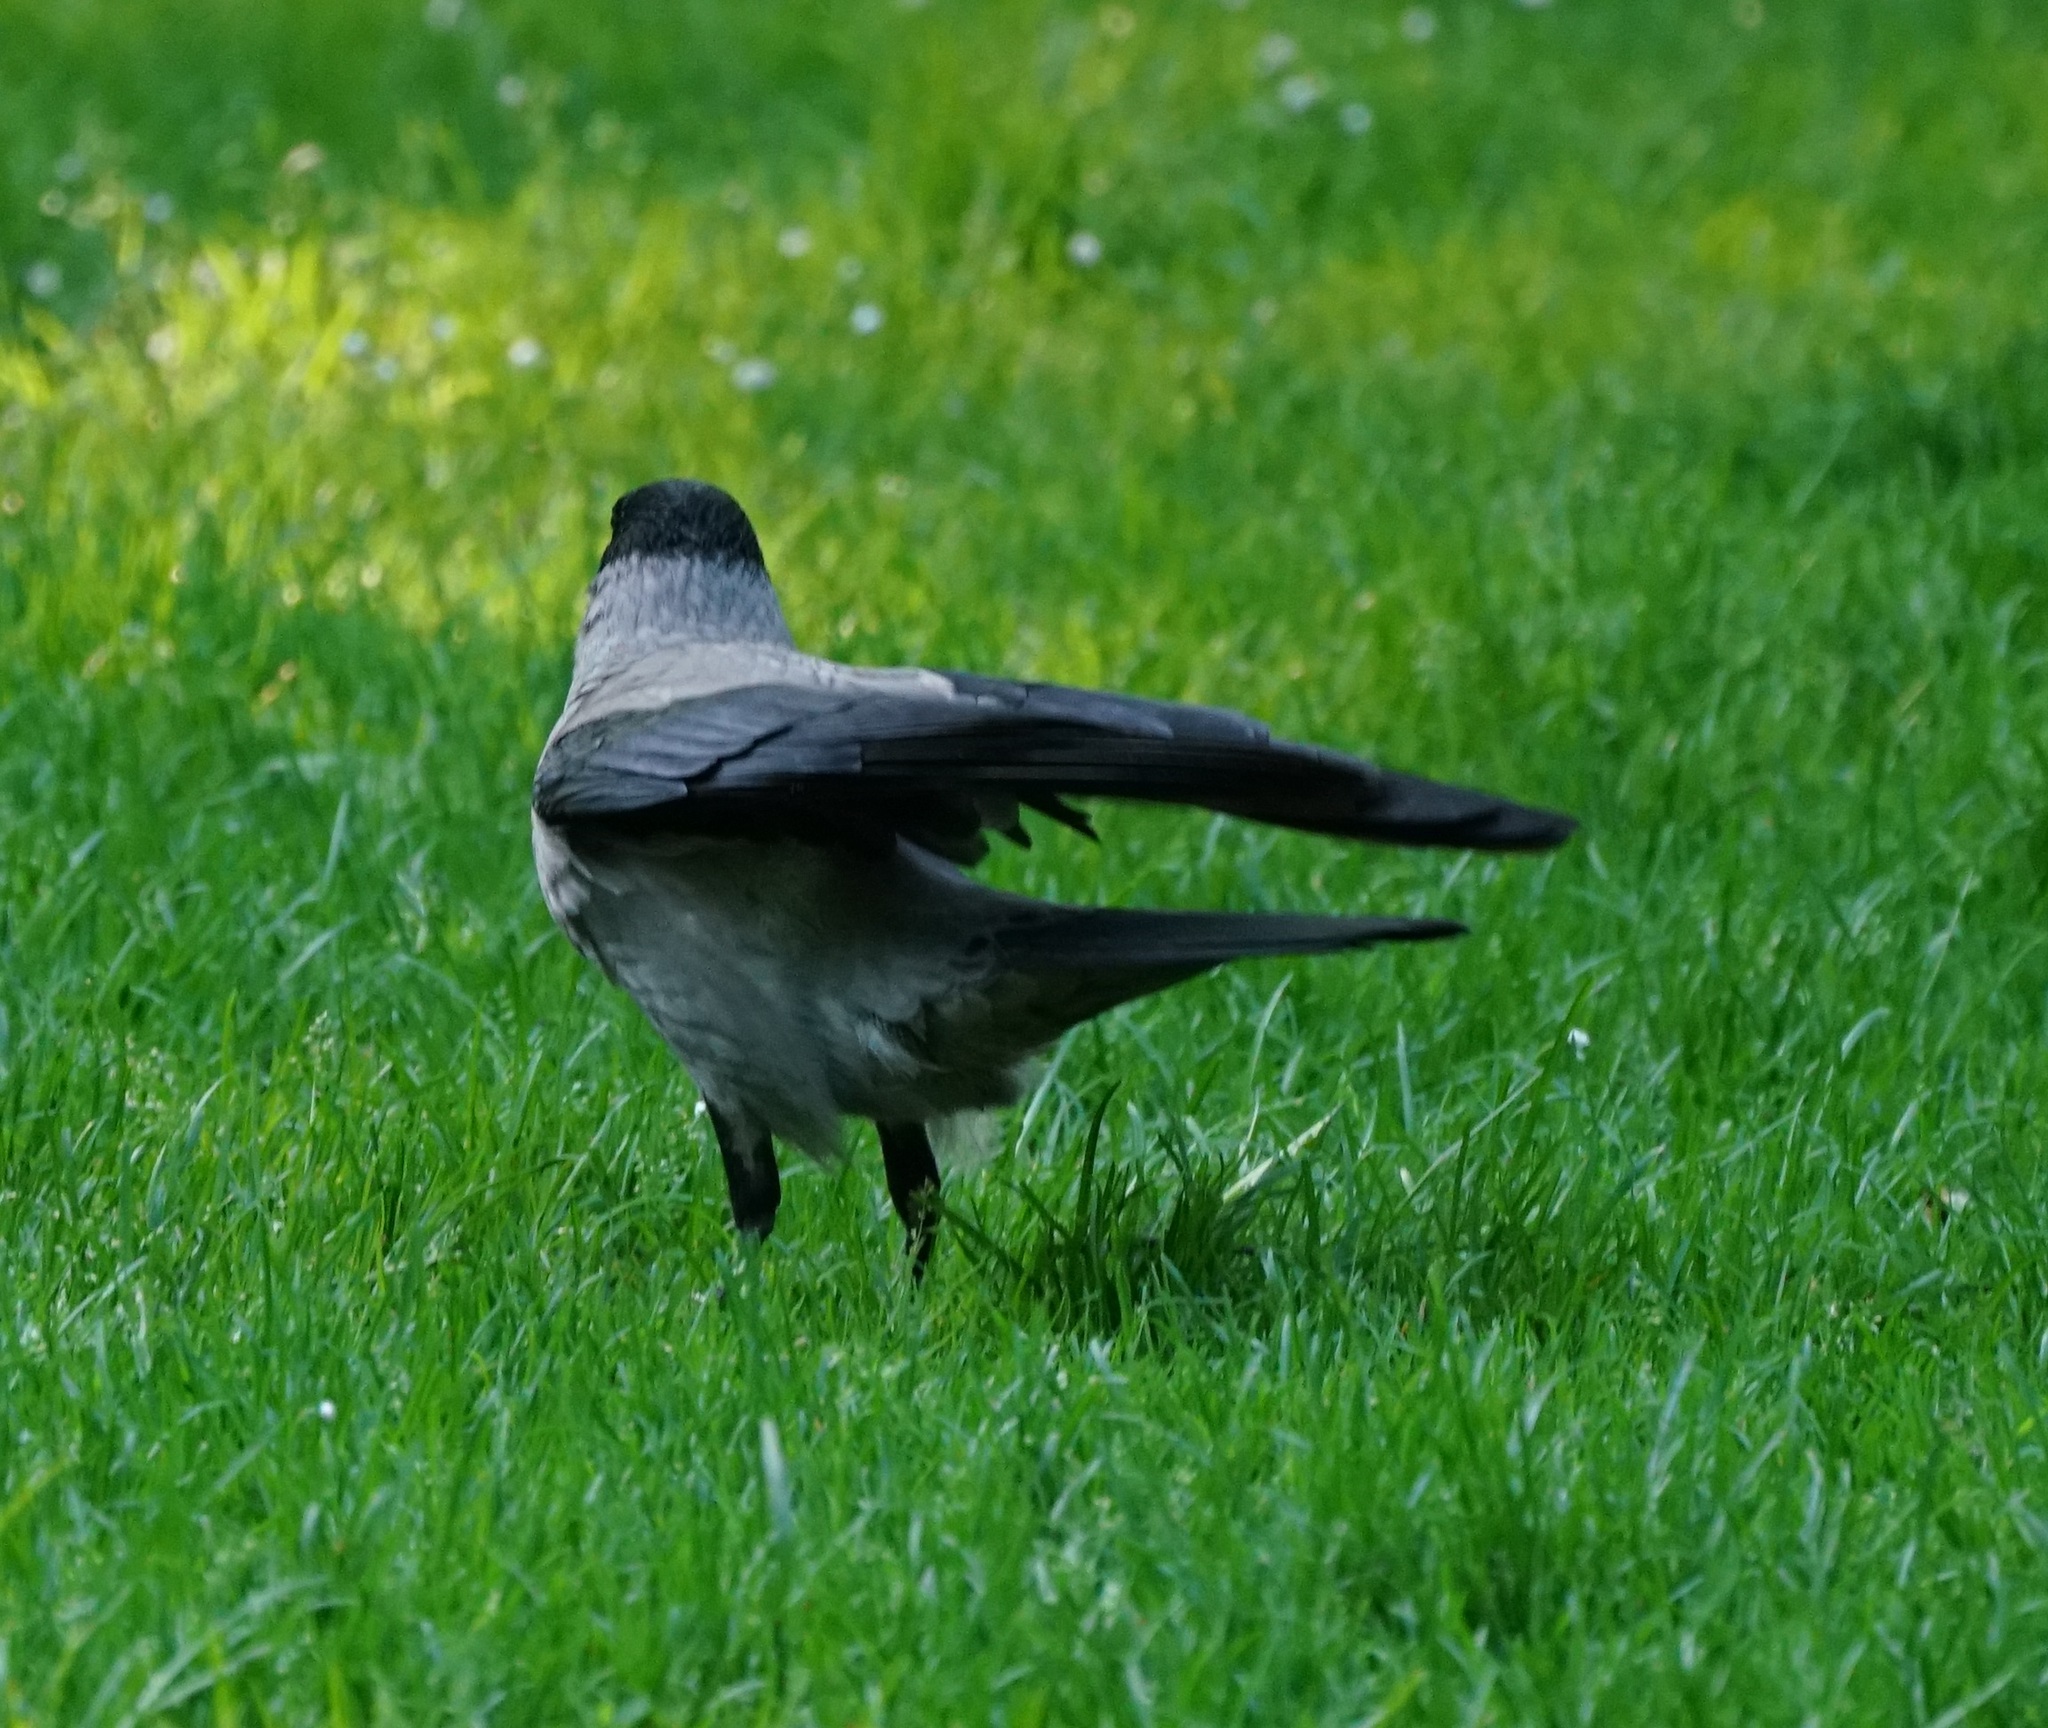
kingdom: Animalia
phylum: Chordata
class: Aves
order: Passeriformes
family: Corvidae
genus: Corvus
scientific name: Corvus cornix
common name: Hooded crow
